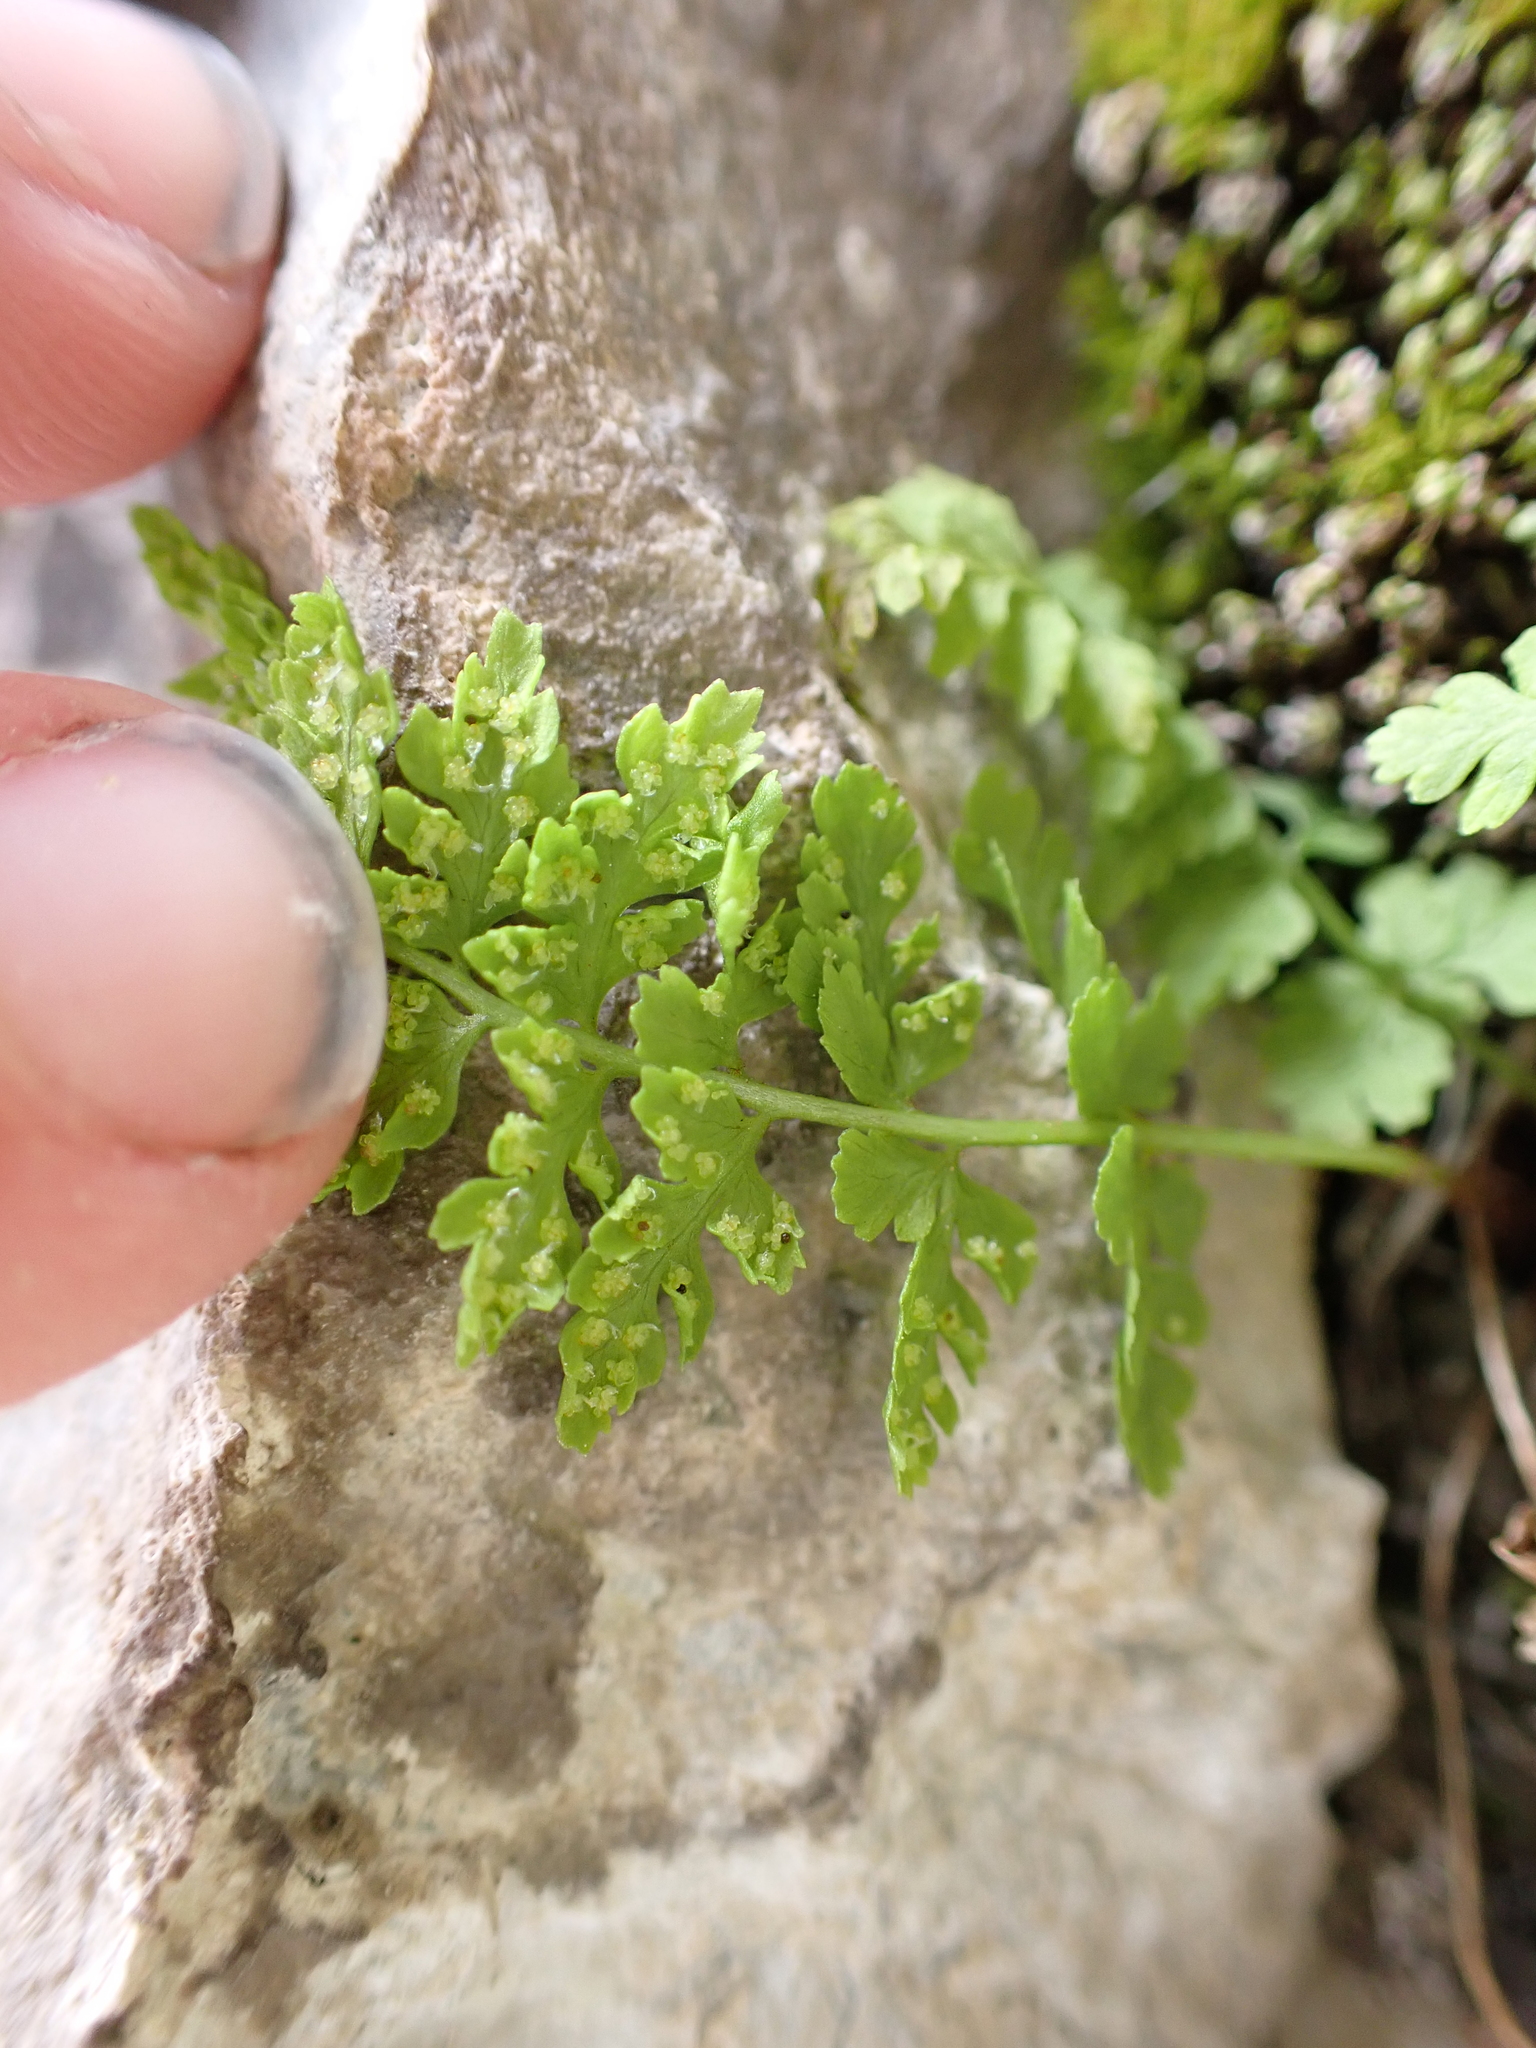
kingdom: Plantae
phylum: Tracheophyta
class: Polypodiopsida
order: Polypodiales
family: Cystopteridaceae
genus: Cystopteris
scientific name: Cystopteris fragilis
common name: Brittle bladder fern
